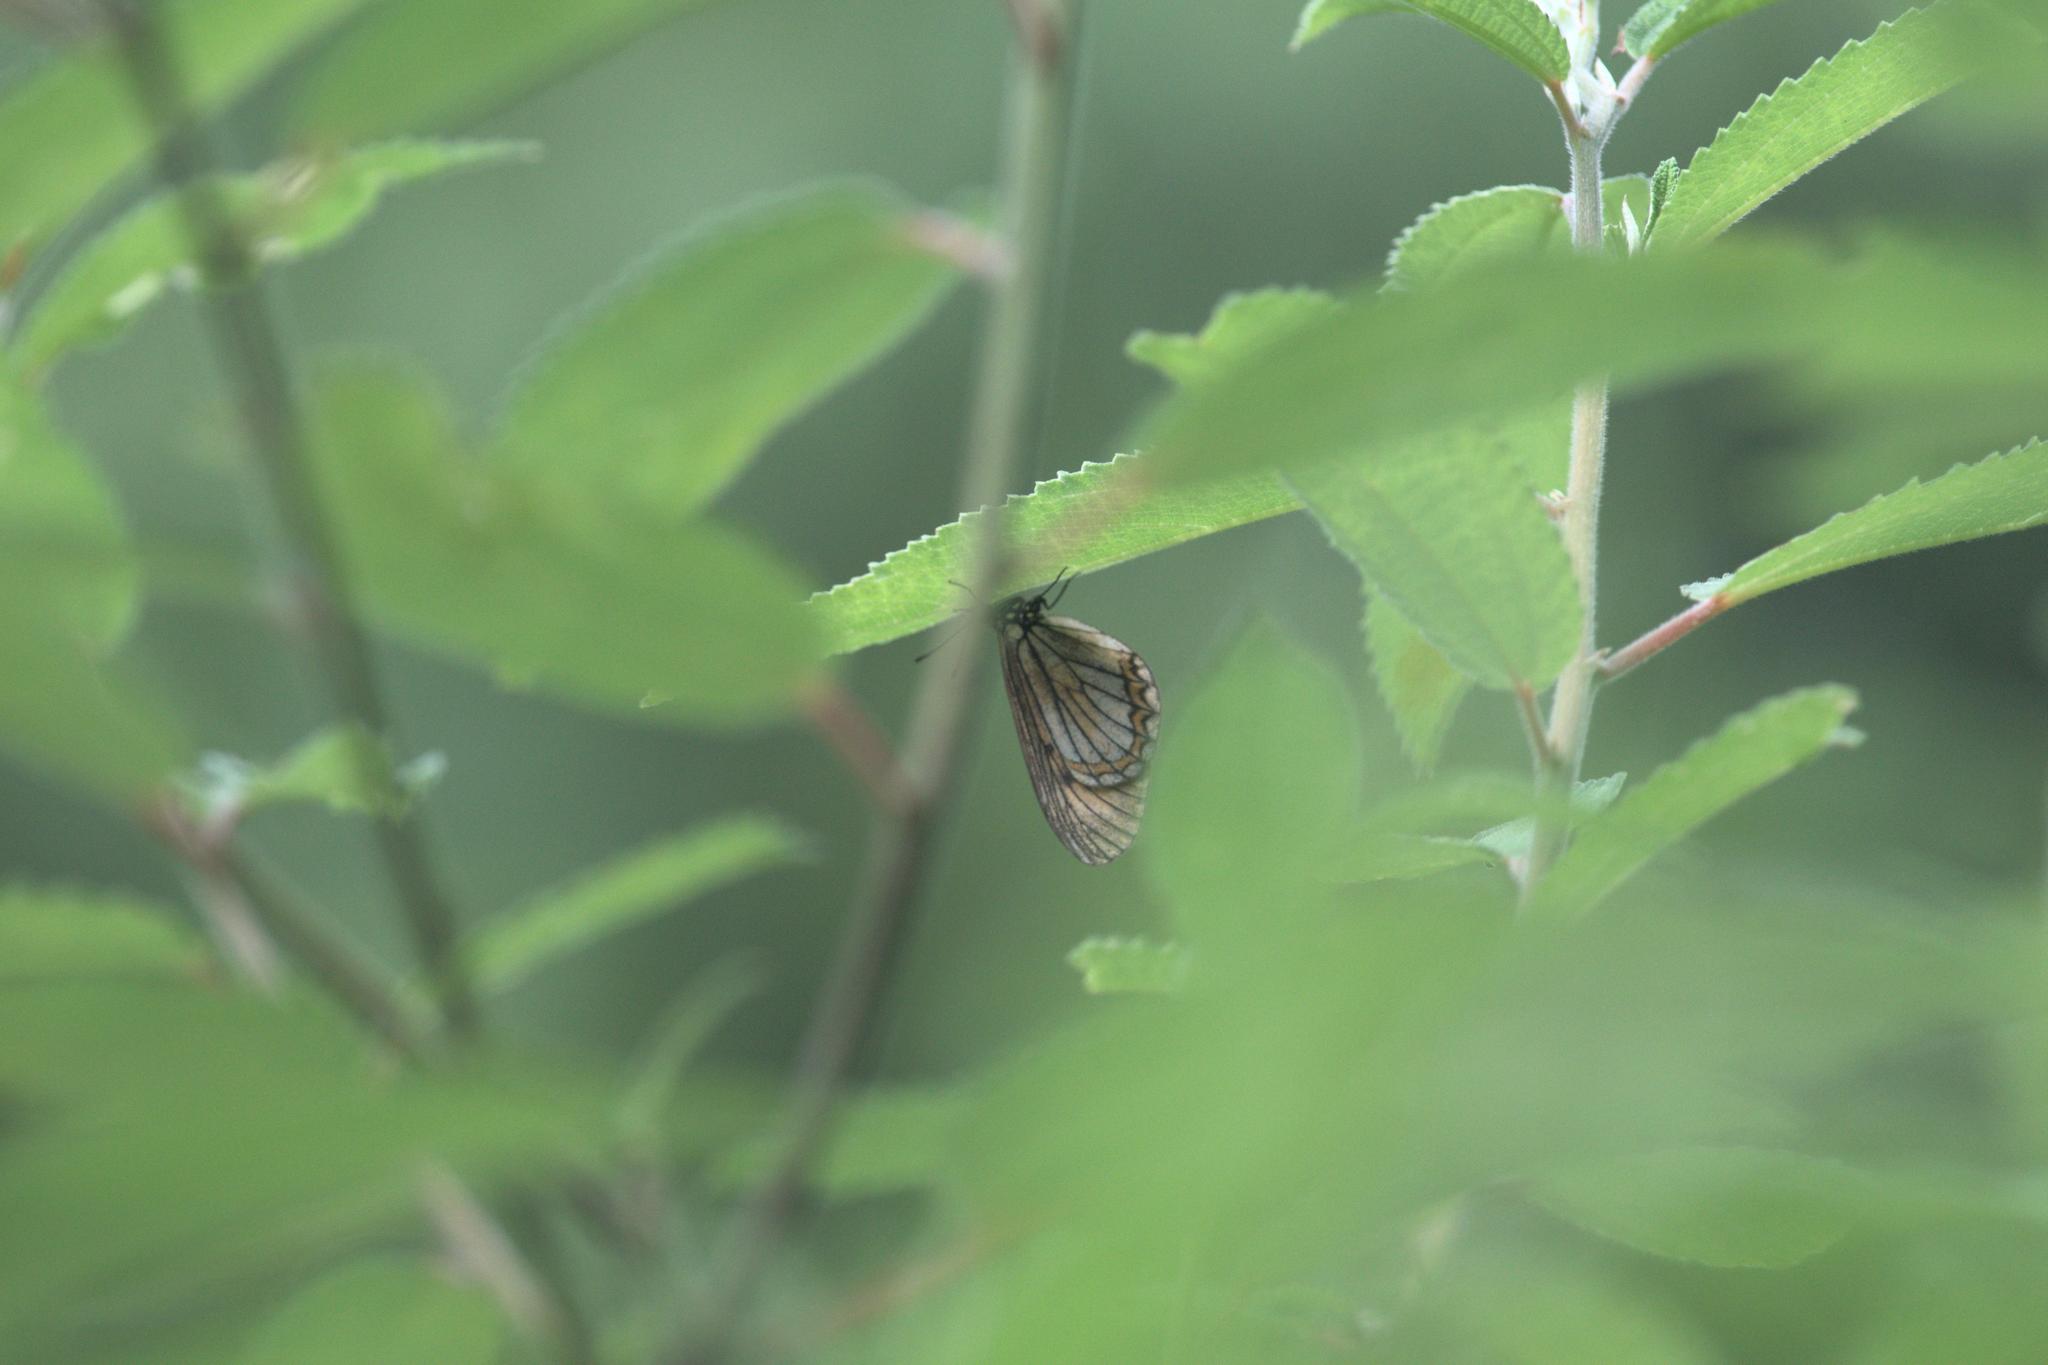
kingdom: Animalia
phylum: Arthropoda
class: Insecta
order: Lepidoptera
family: Nymphalidae
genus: Acraea
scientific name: Acraea Telchinia issoria
